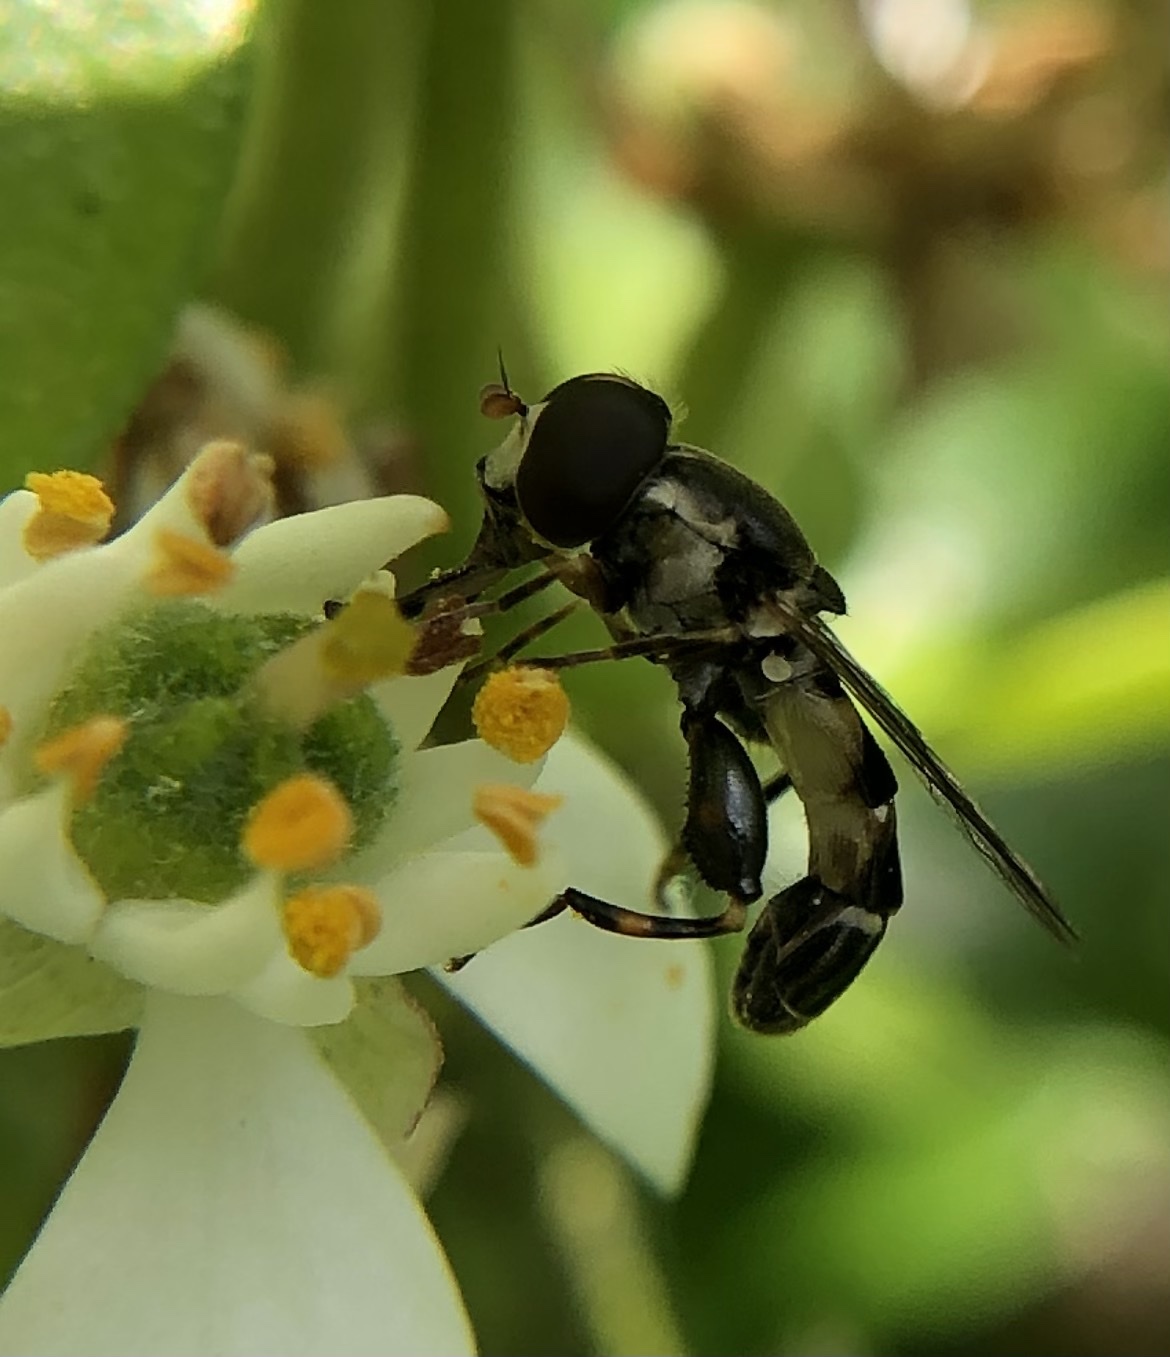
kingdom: Animalia
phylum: Arthropoda
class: Insecta
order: Diptera
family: Syrphidae
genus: Syritta
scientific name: Syritta pipiens
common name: Hover fly
